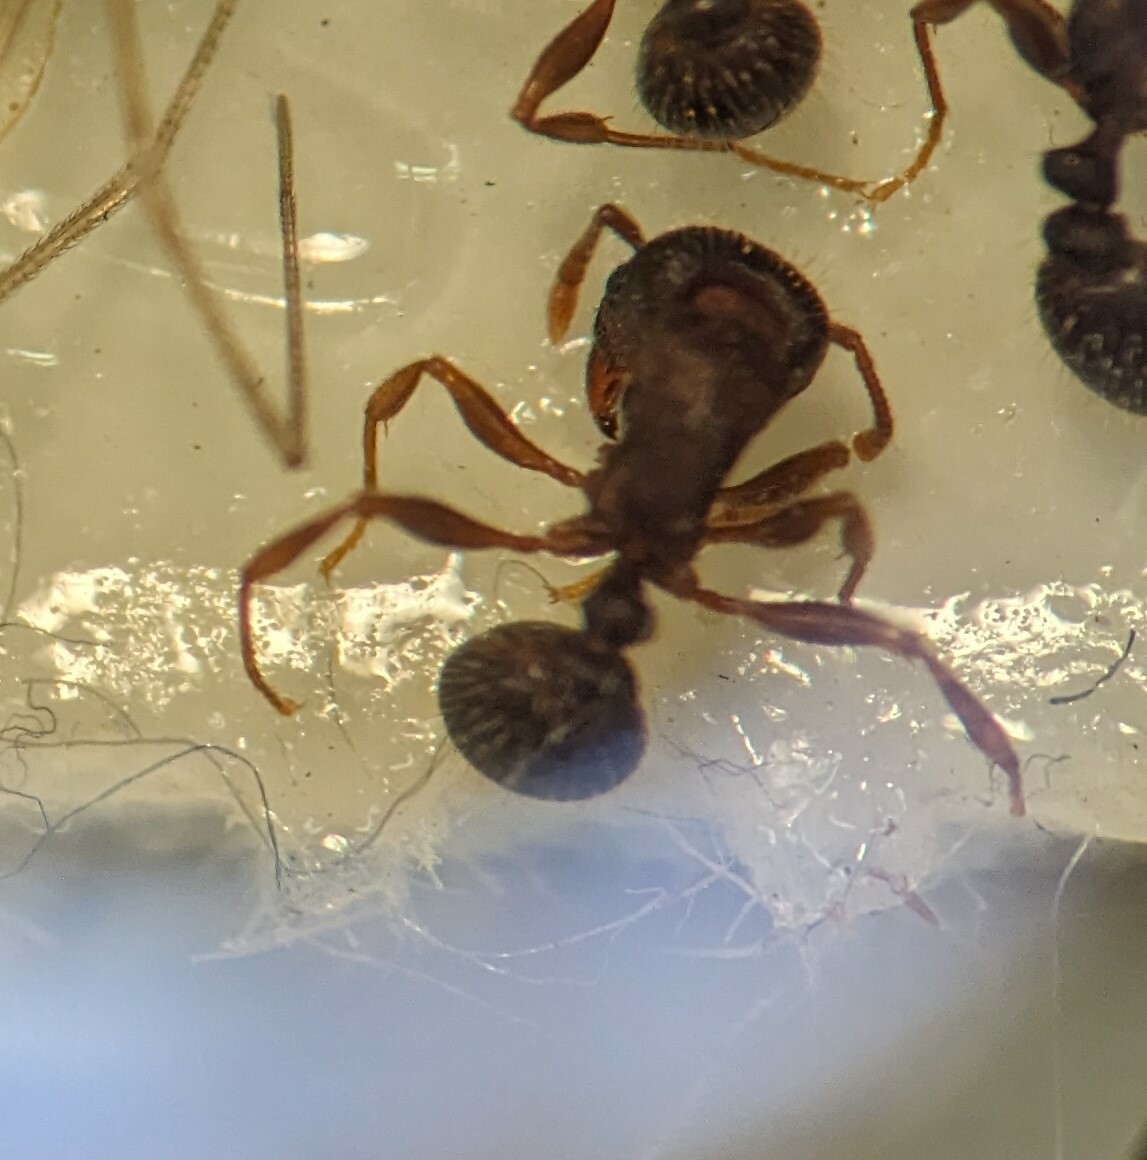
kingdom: Animalia
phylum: Arthropoda
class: Insecta
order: Hymenoptera
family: Formicidae
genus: Tetramorium
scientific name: Tetramorium immigrans
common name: Pavement ant
